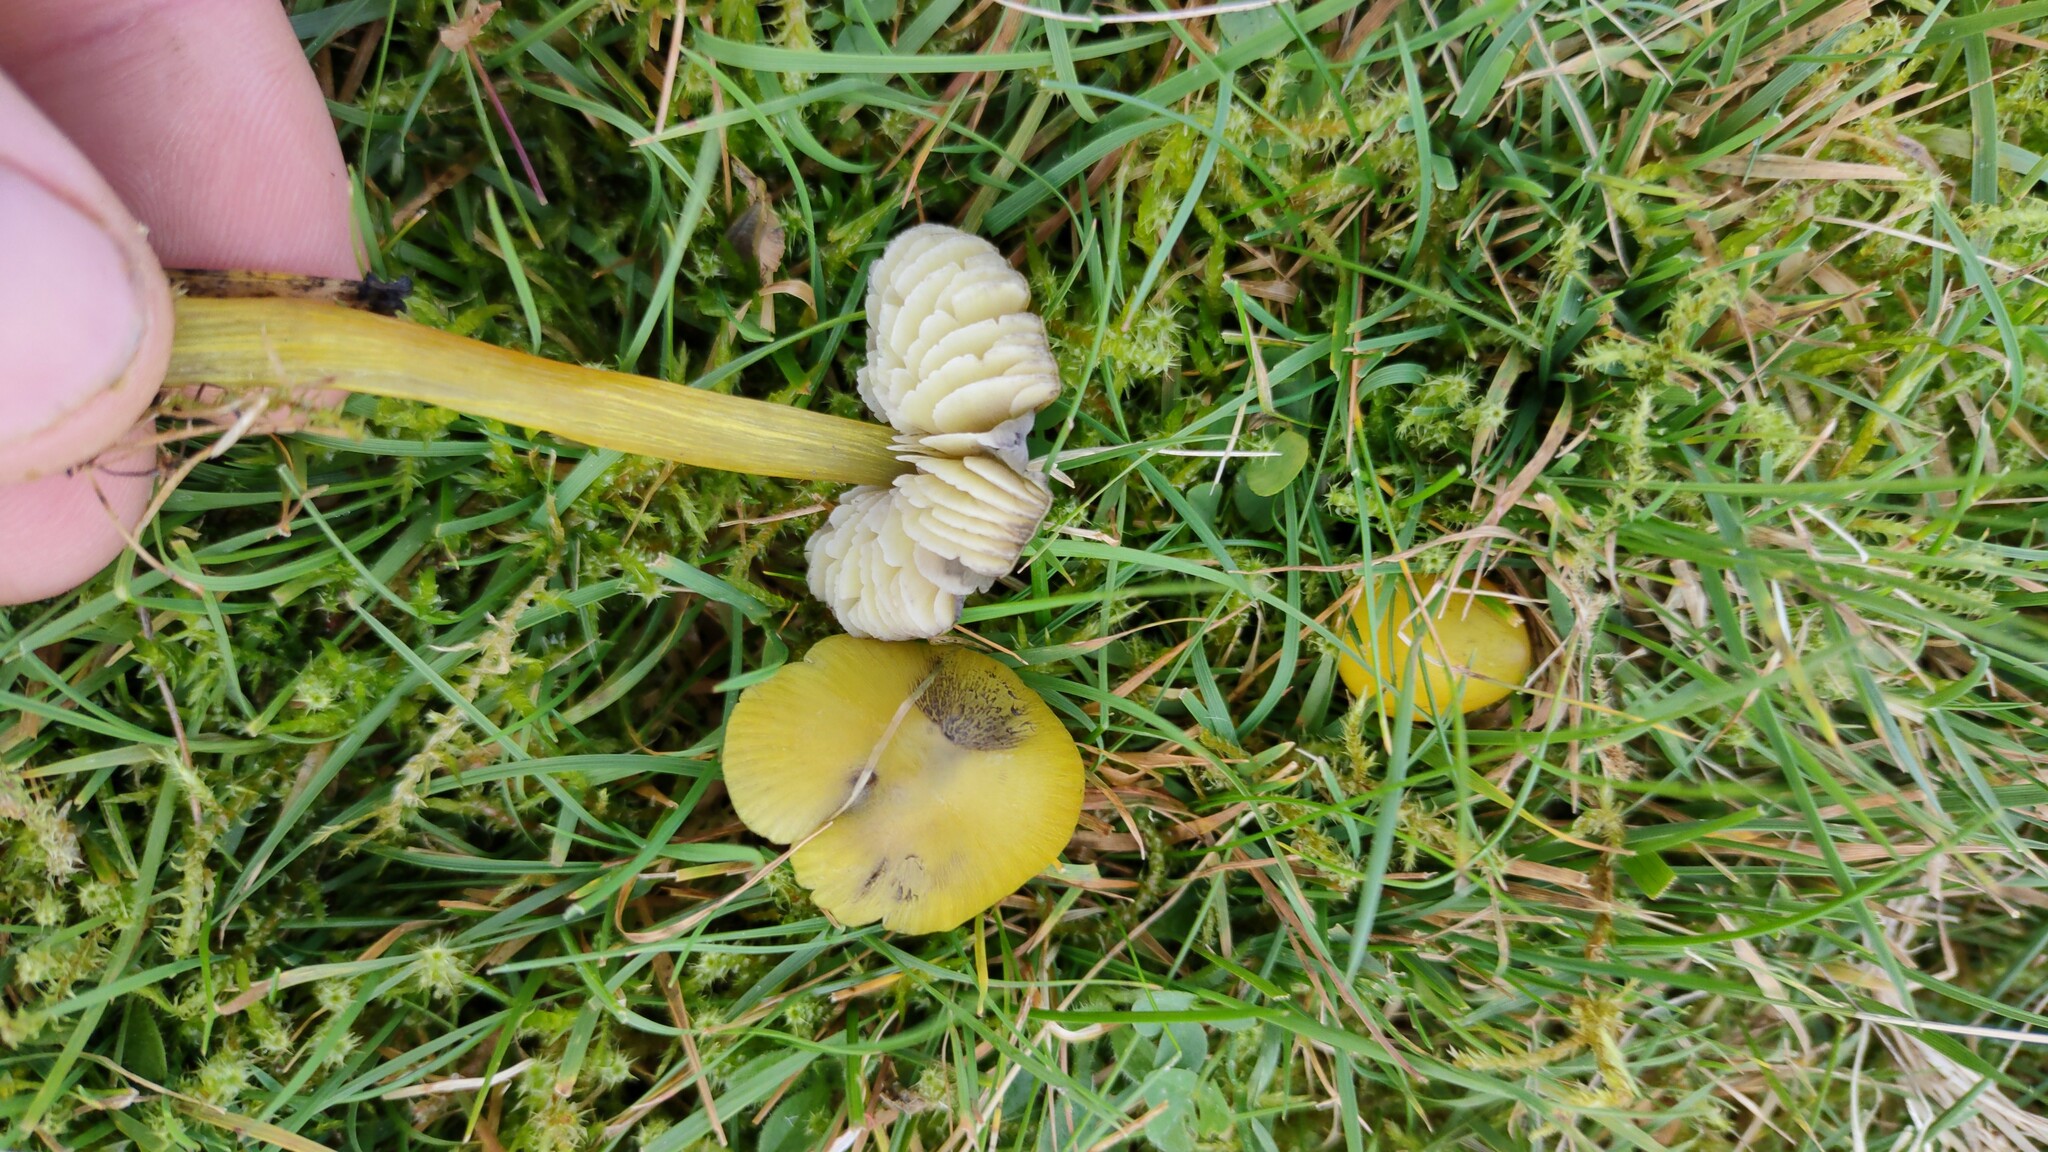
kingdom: Fungi
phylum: Basidiomycota
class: Agaricomycetes
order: Agaricales
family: Hygrophoraceae
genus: Hygrocybe
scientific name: Hygrocybe conica
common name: Blackening wax-cap
